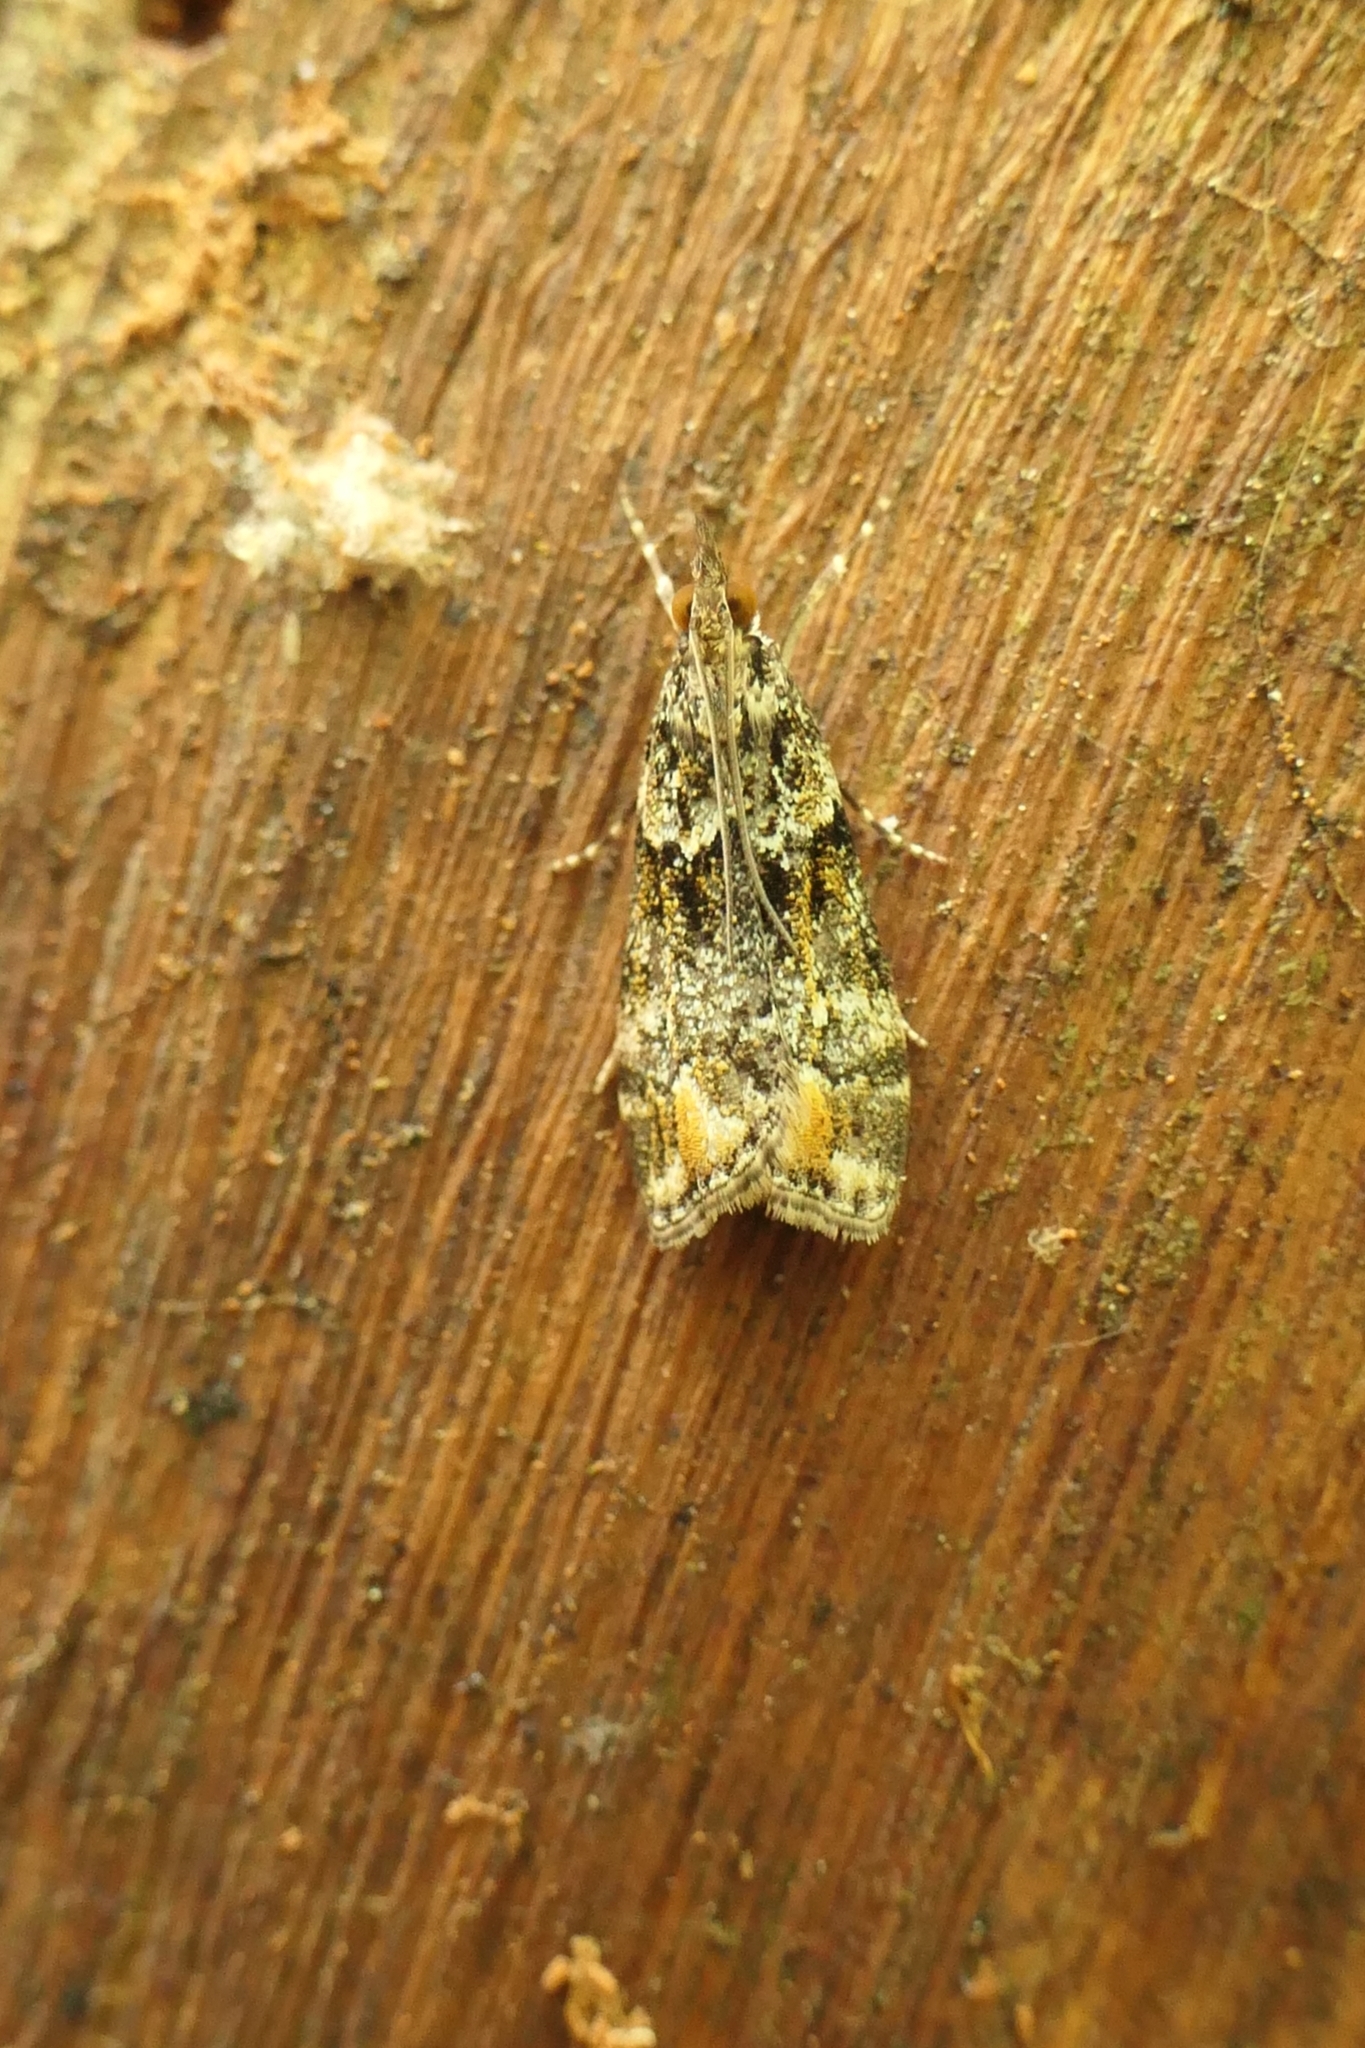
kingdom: Animalia
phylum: Arthropoda
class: Insecta
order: Lepidoptera
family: Crambidae
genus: Eudonia
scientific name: Eudonia minualis
